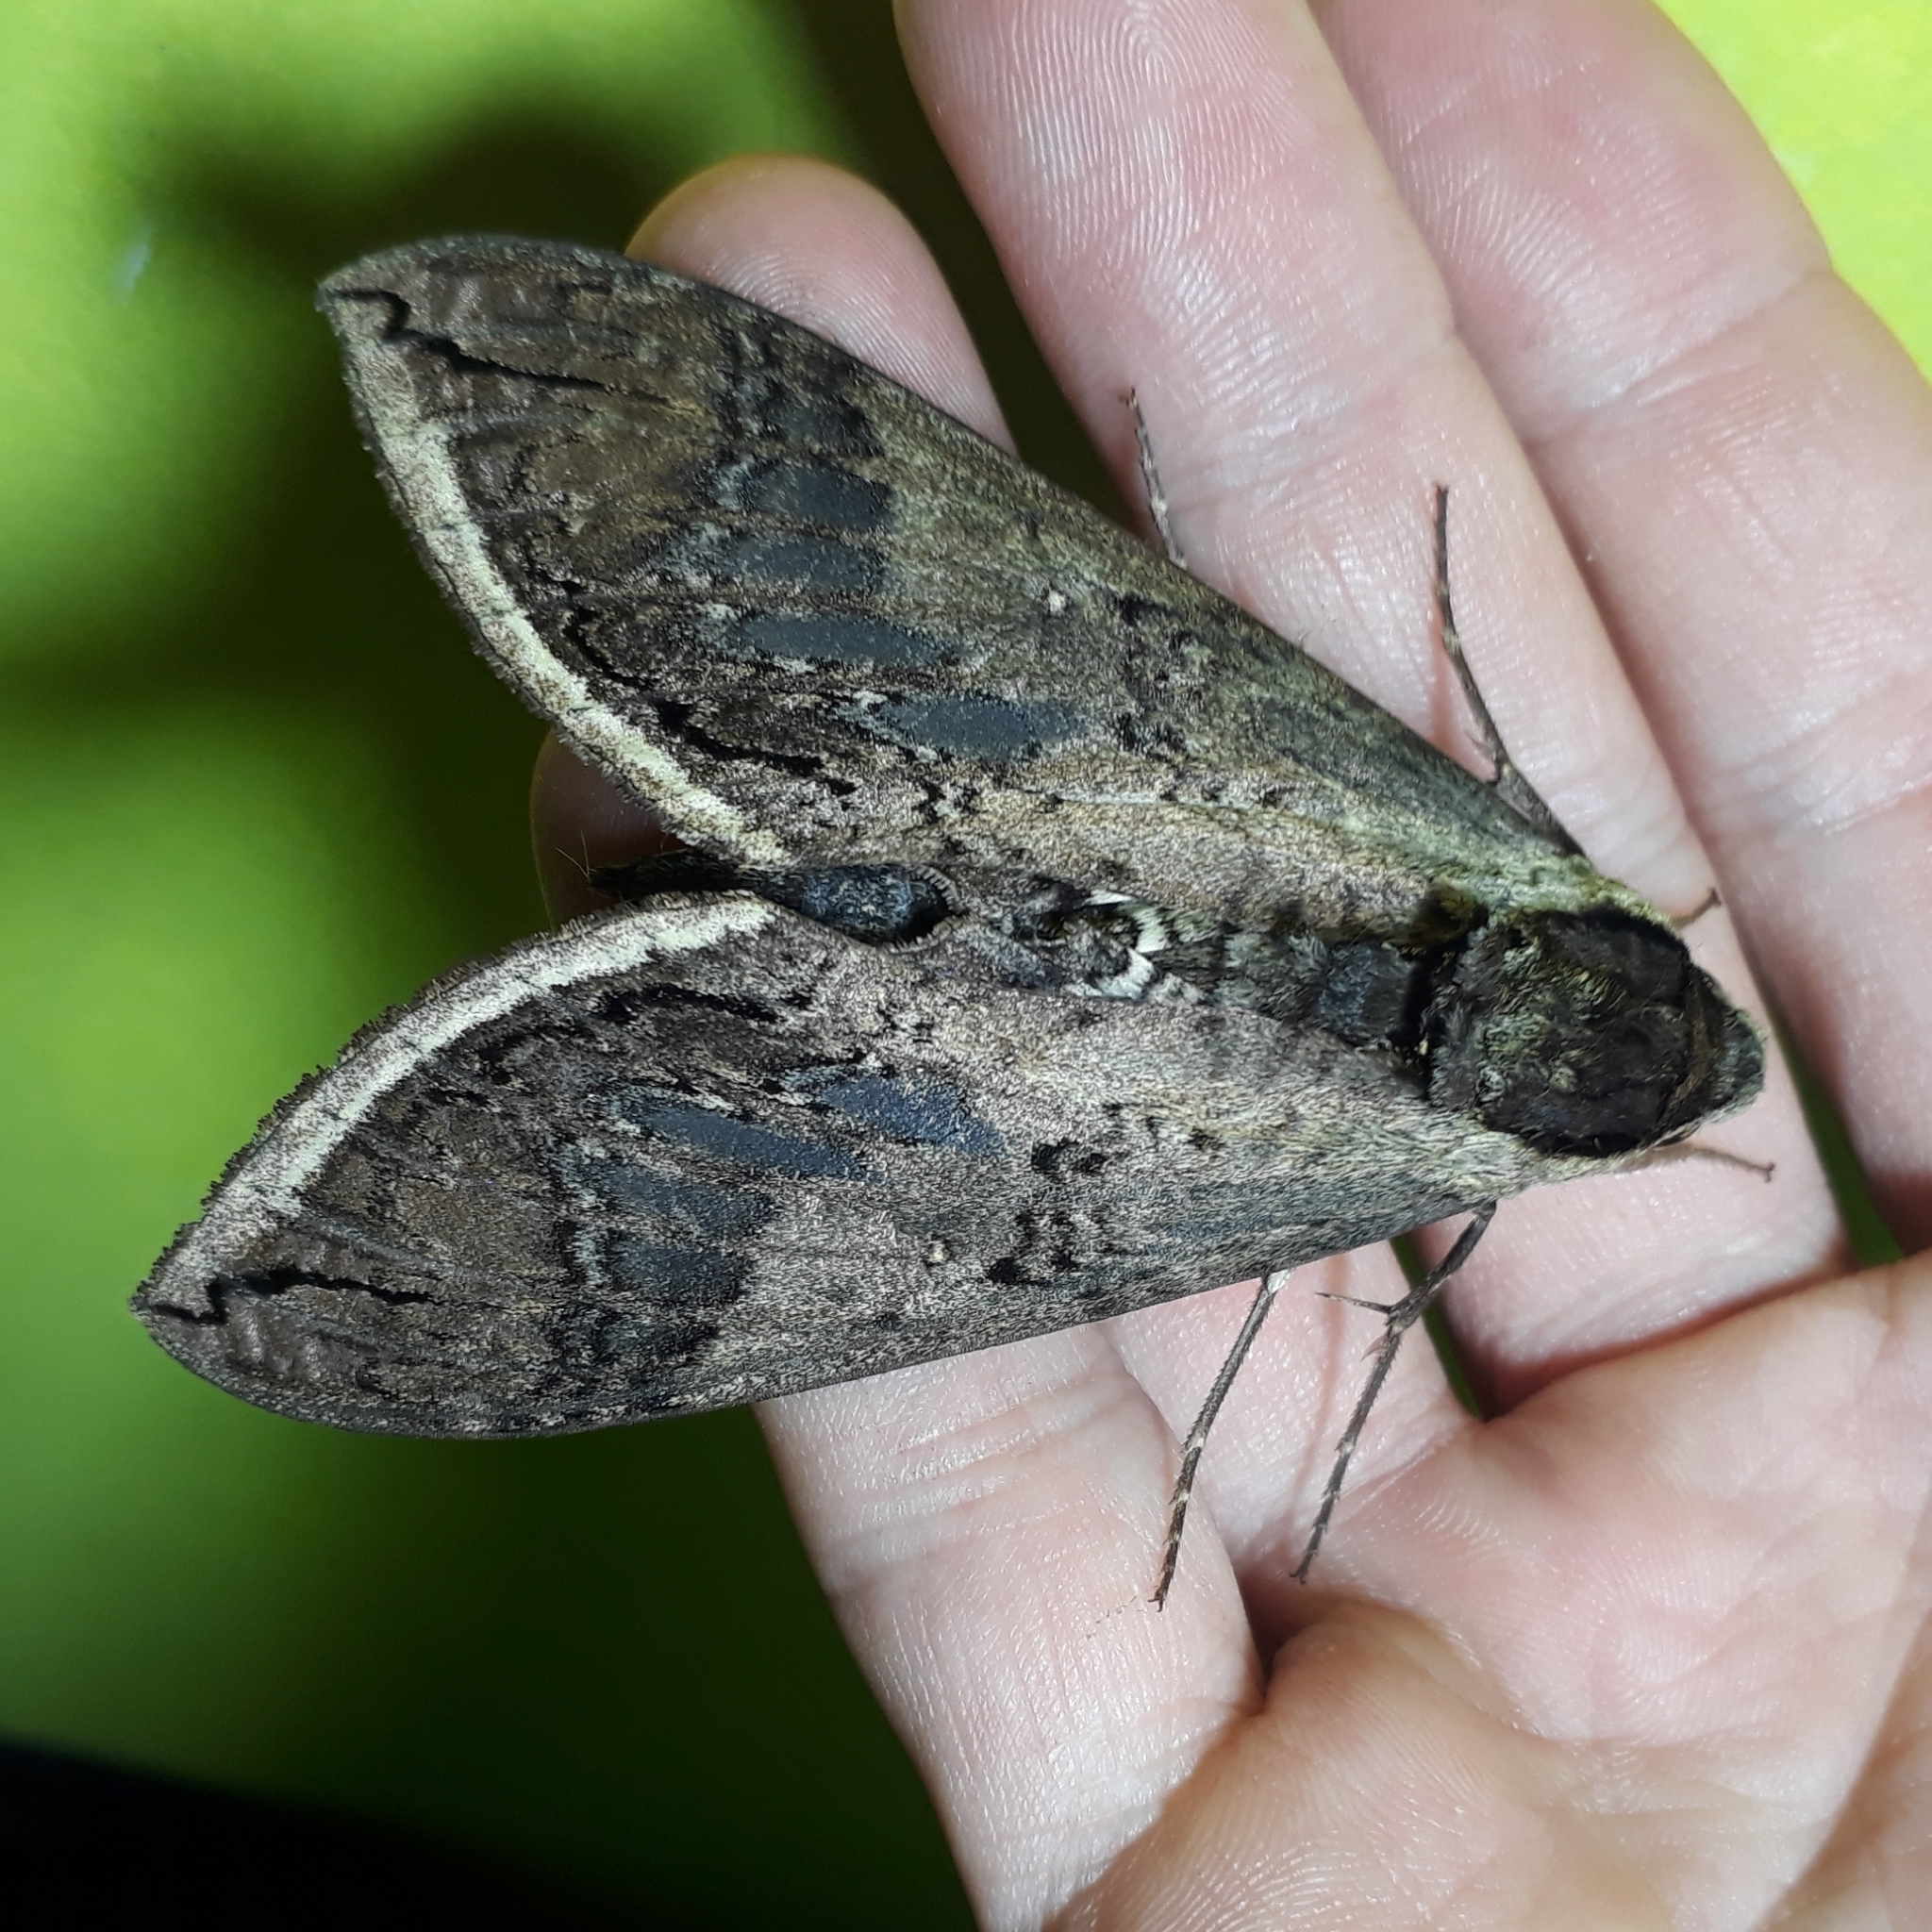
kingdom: Animalia
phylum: Arthropoda
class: Insecta
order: Lepidoptera
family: Sphingidae
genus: Manduca
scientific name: Manduca hannibal
